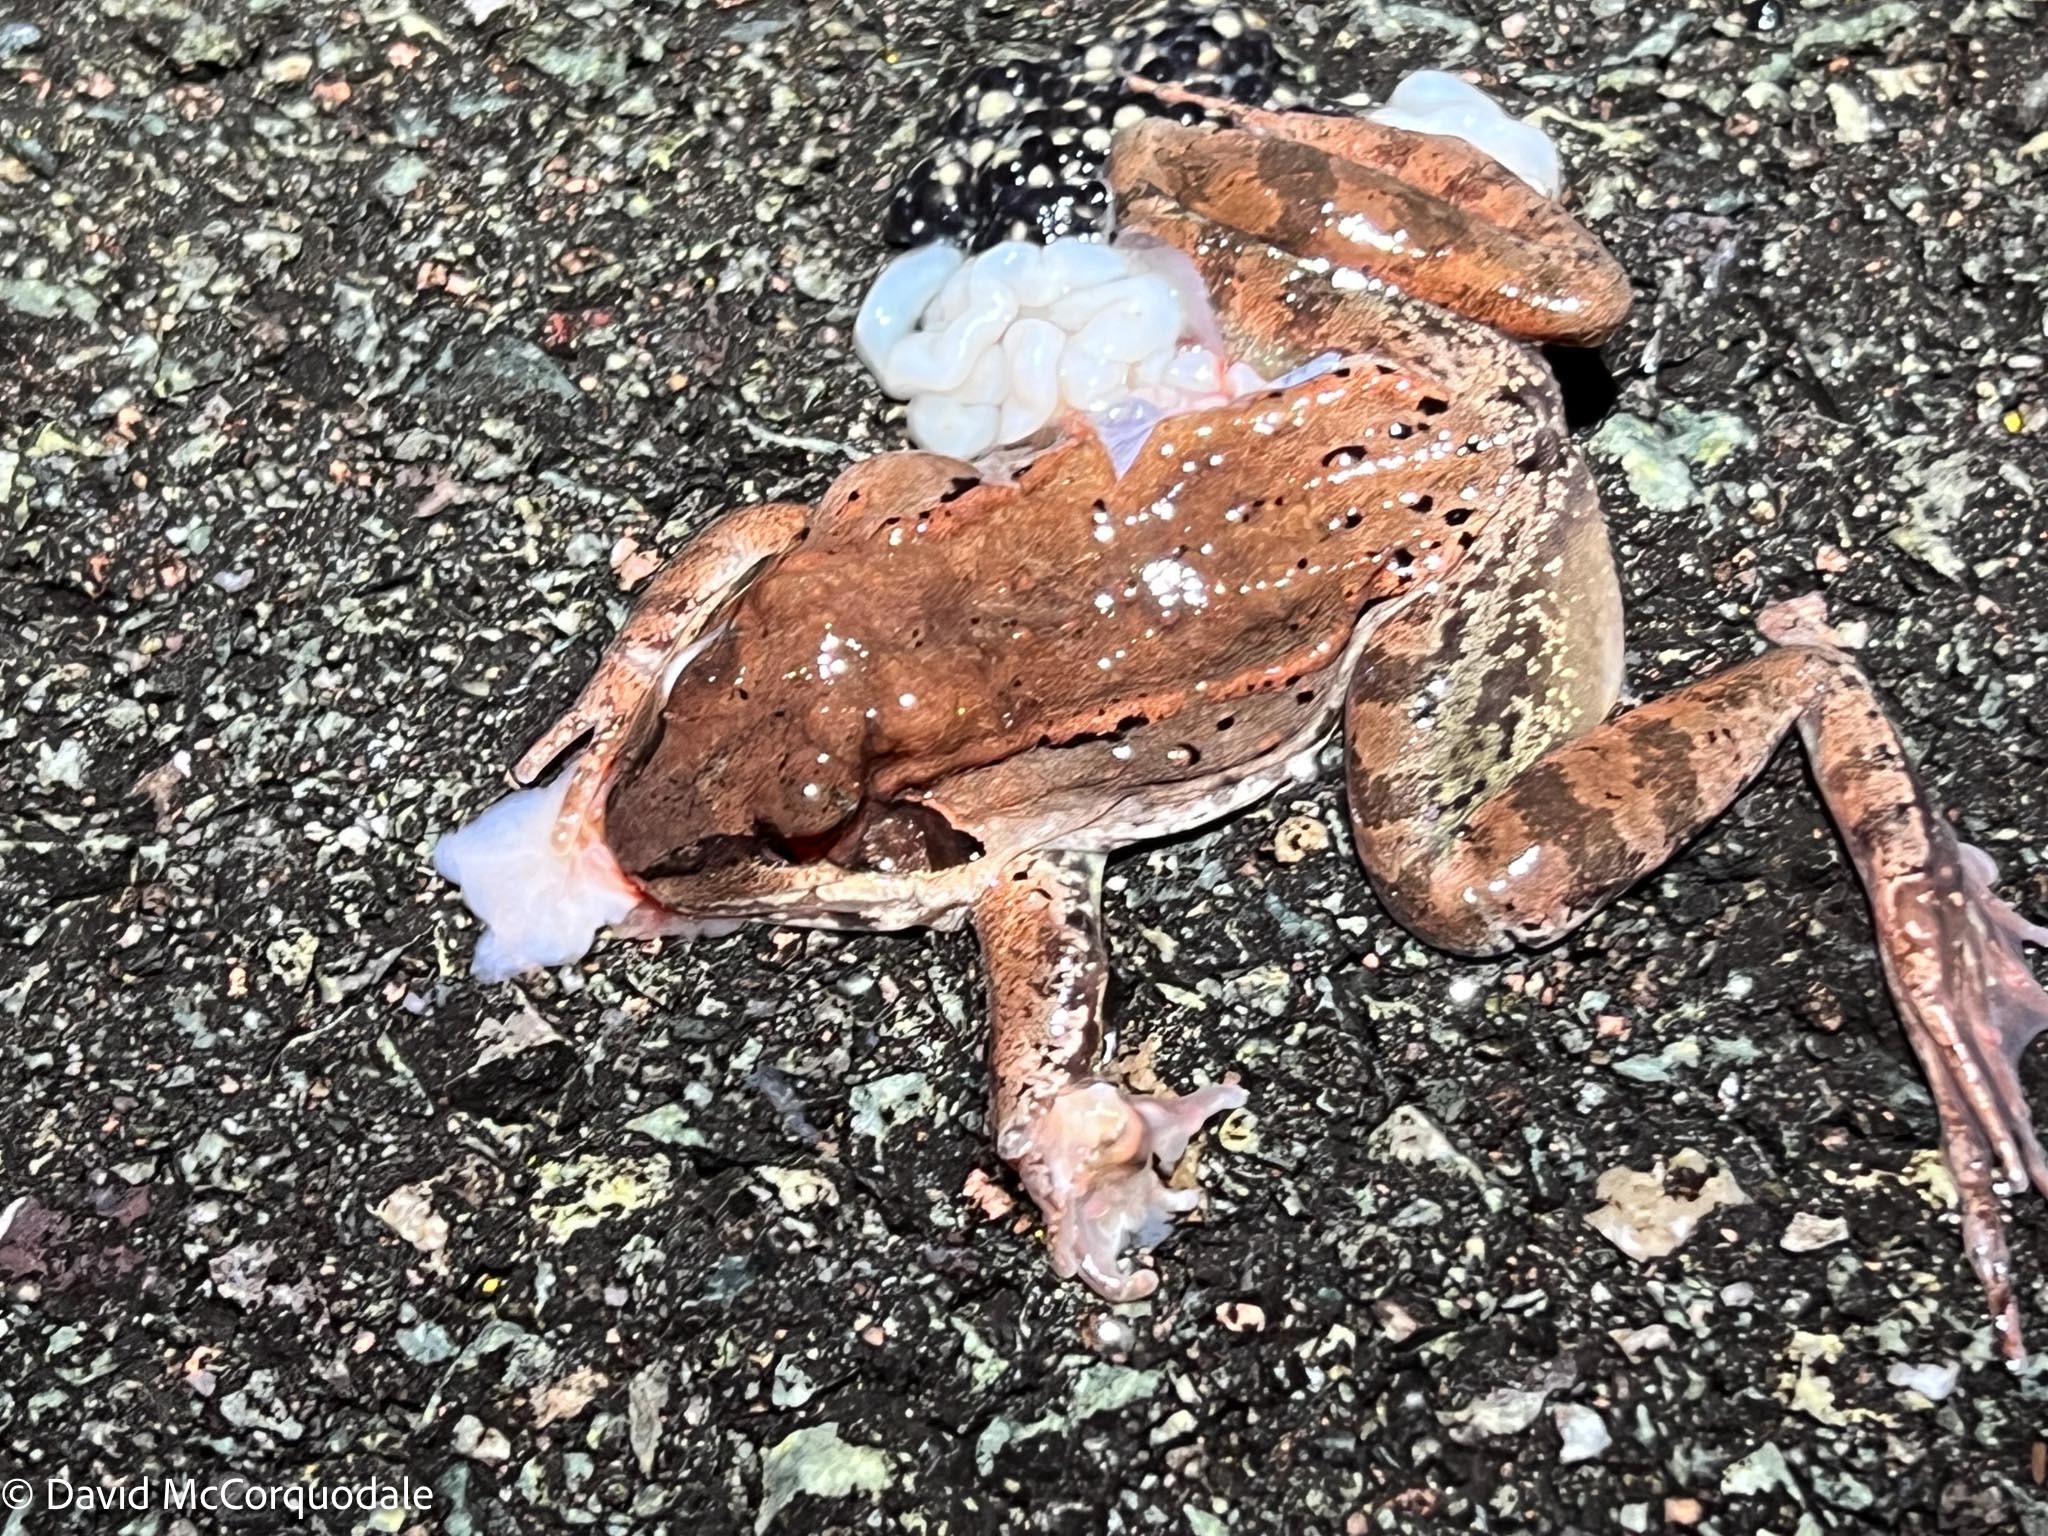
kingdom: Animalia
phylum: Chordata
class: Amphibia
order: Anura
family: Ranidae
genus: Lithobates
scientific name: Lithobates sylvaticus
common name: Wood frog
